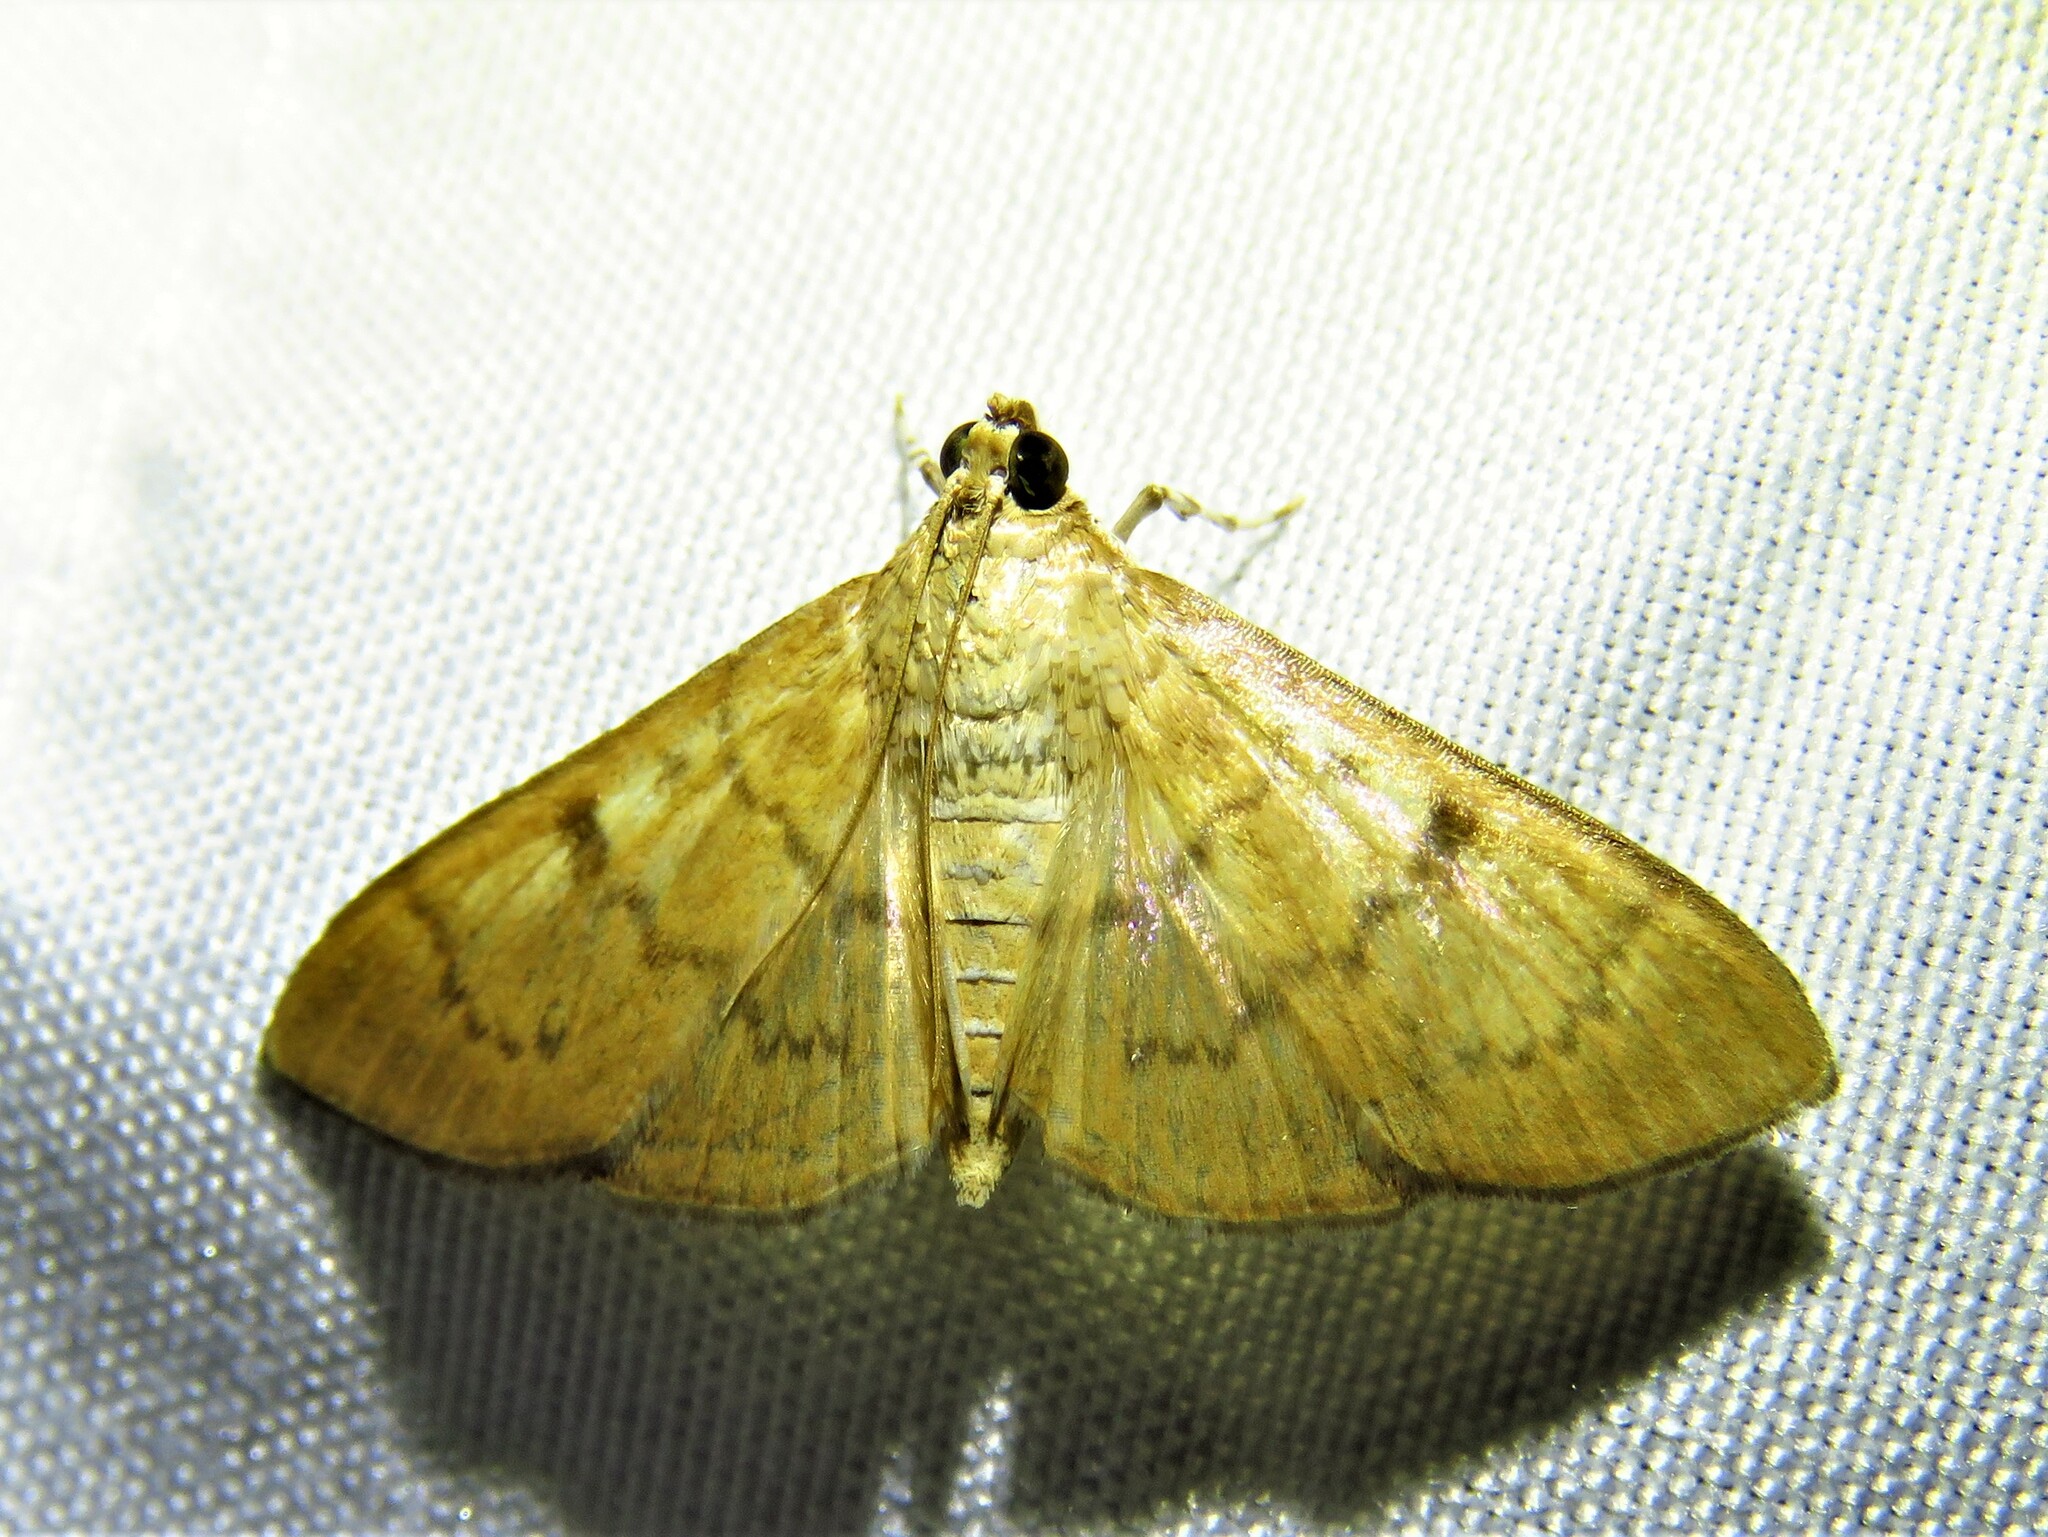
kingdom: Animalia
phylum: Arthropoda
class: Insecta
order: Lepidoptera
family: Crambidae
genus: Syllepte
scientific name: Syllepte obscuralis
